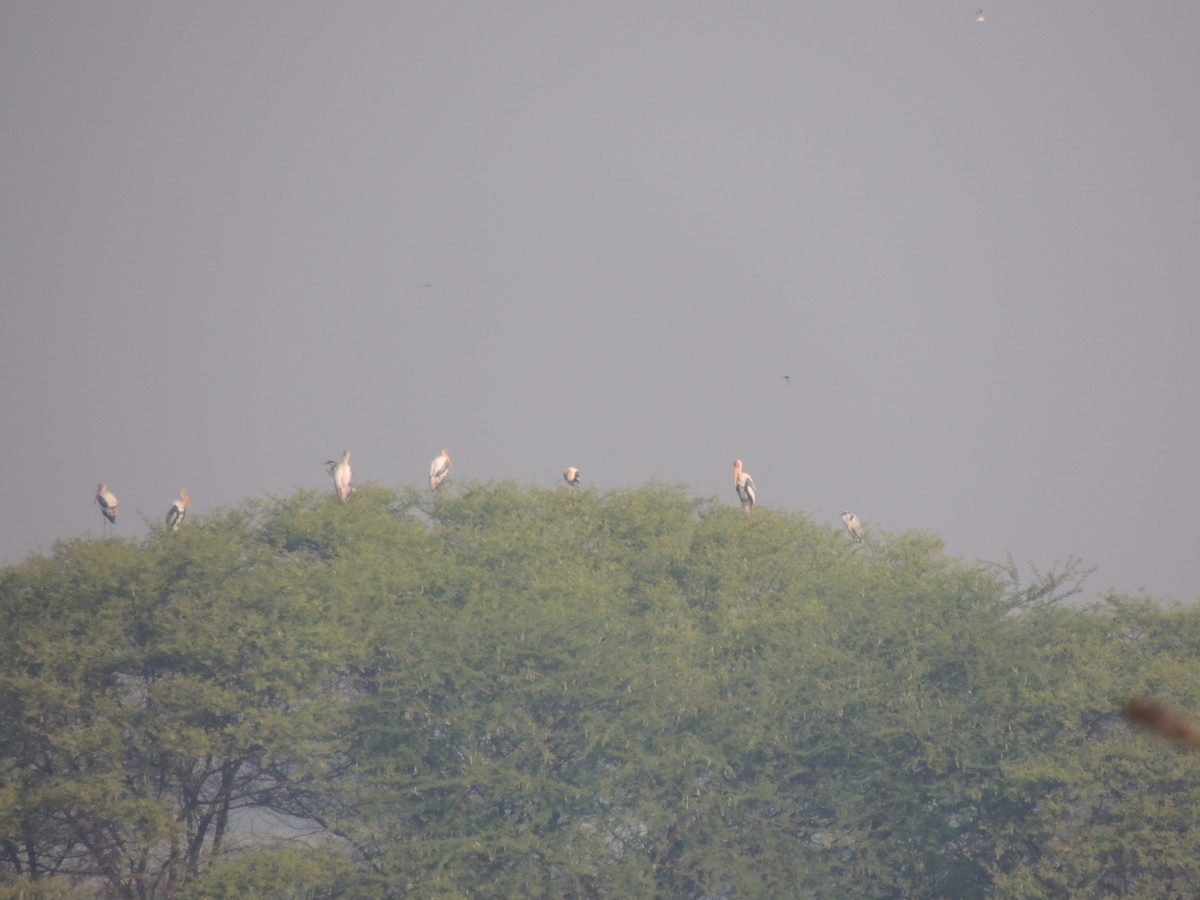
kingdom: Animalia
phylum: Chordata
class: Aves
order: Ciconiiformes
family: Ciconiidae
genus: Mycteria
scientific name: Mycteria leucocephala
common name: Painted stork
